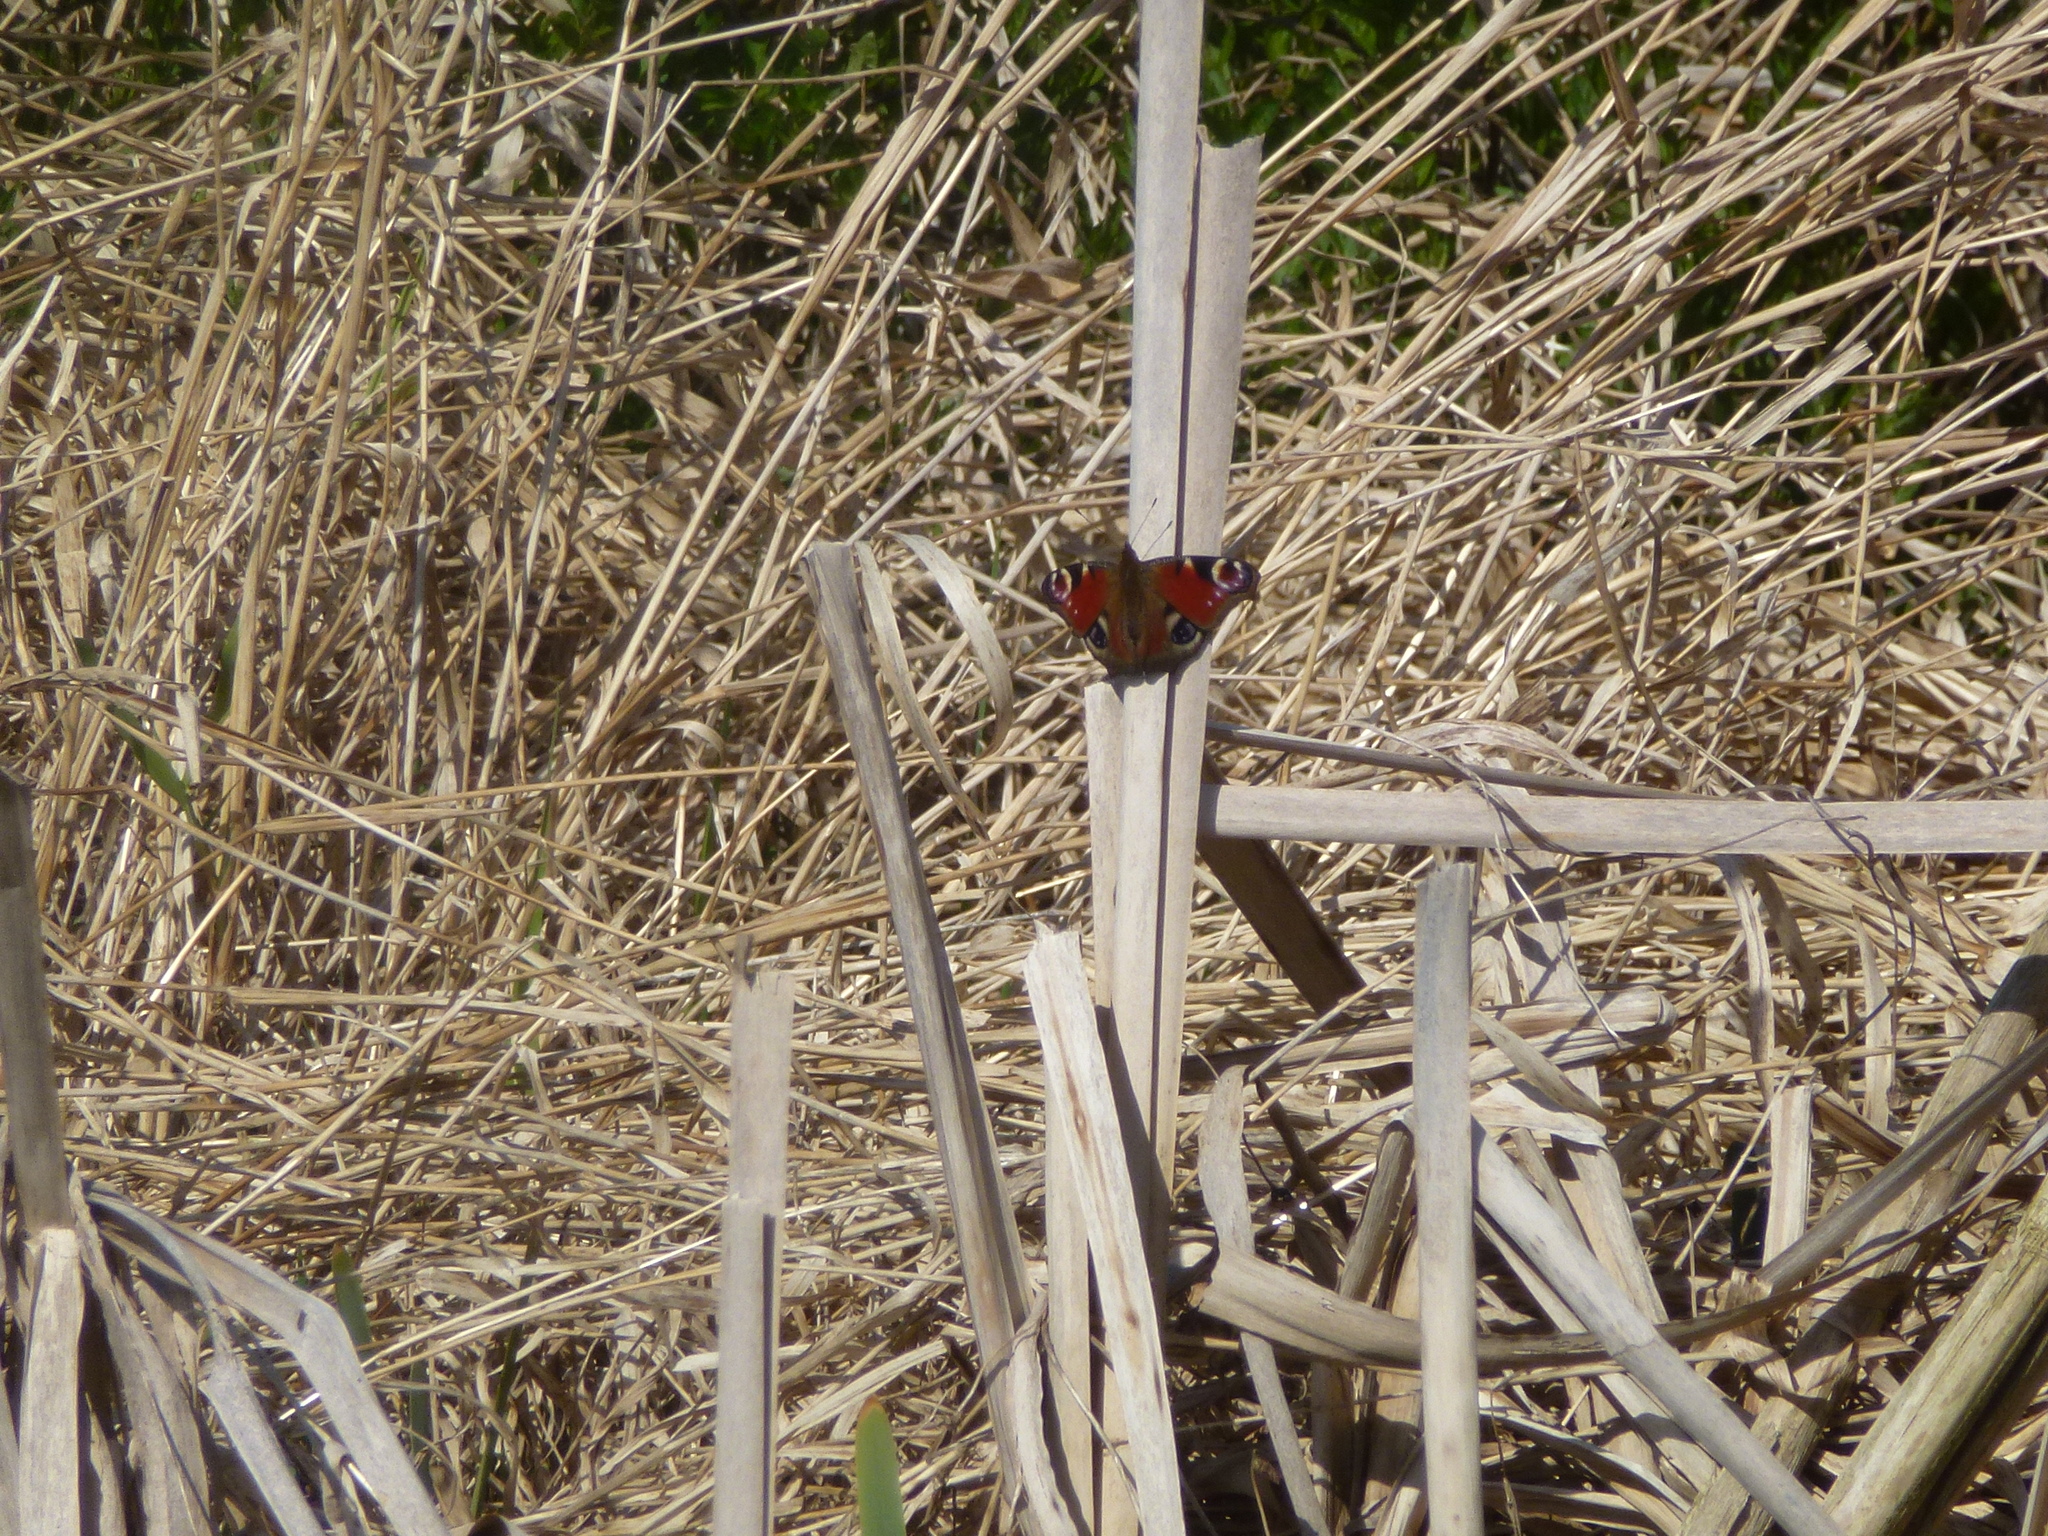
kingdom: Animalia
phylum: Arthropoda
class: Insecta
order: Lepidoptera
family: Nymphalidae
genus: Aglais
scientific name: Aglais io
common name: Peacock
